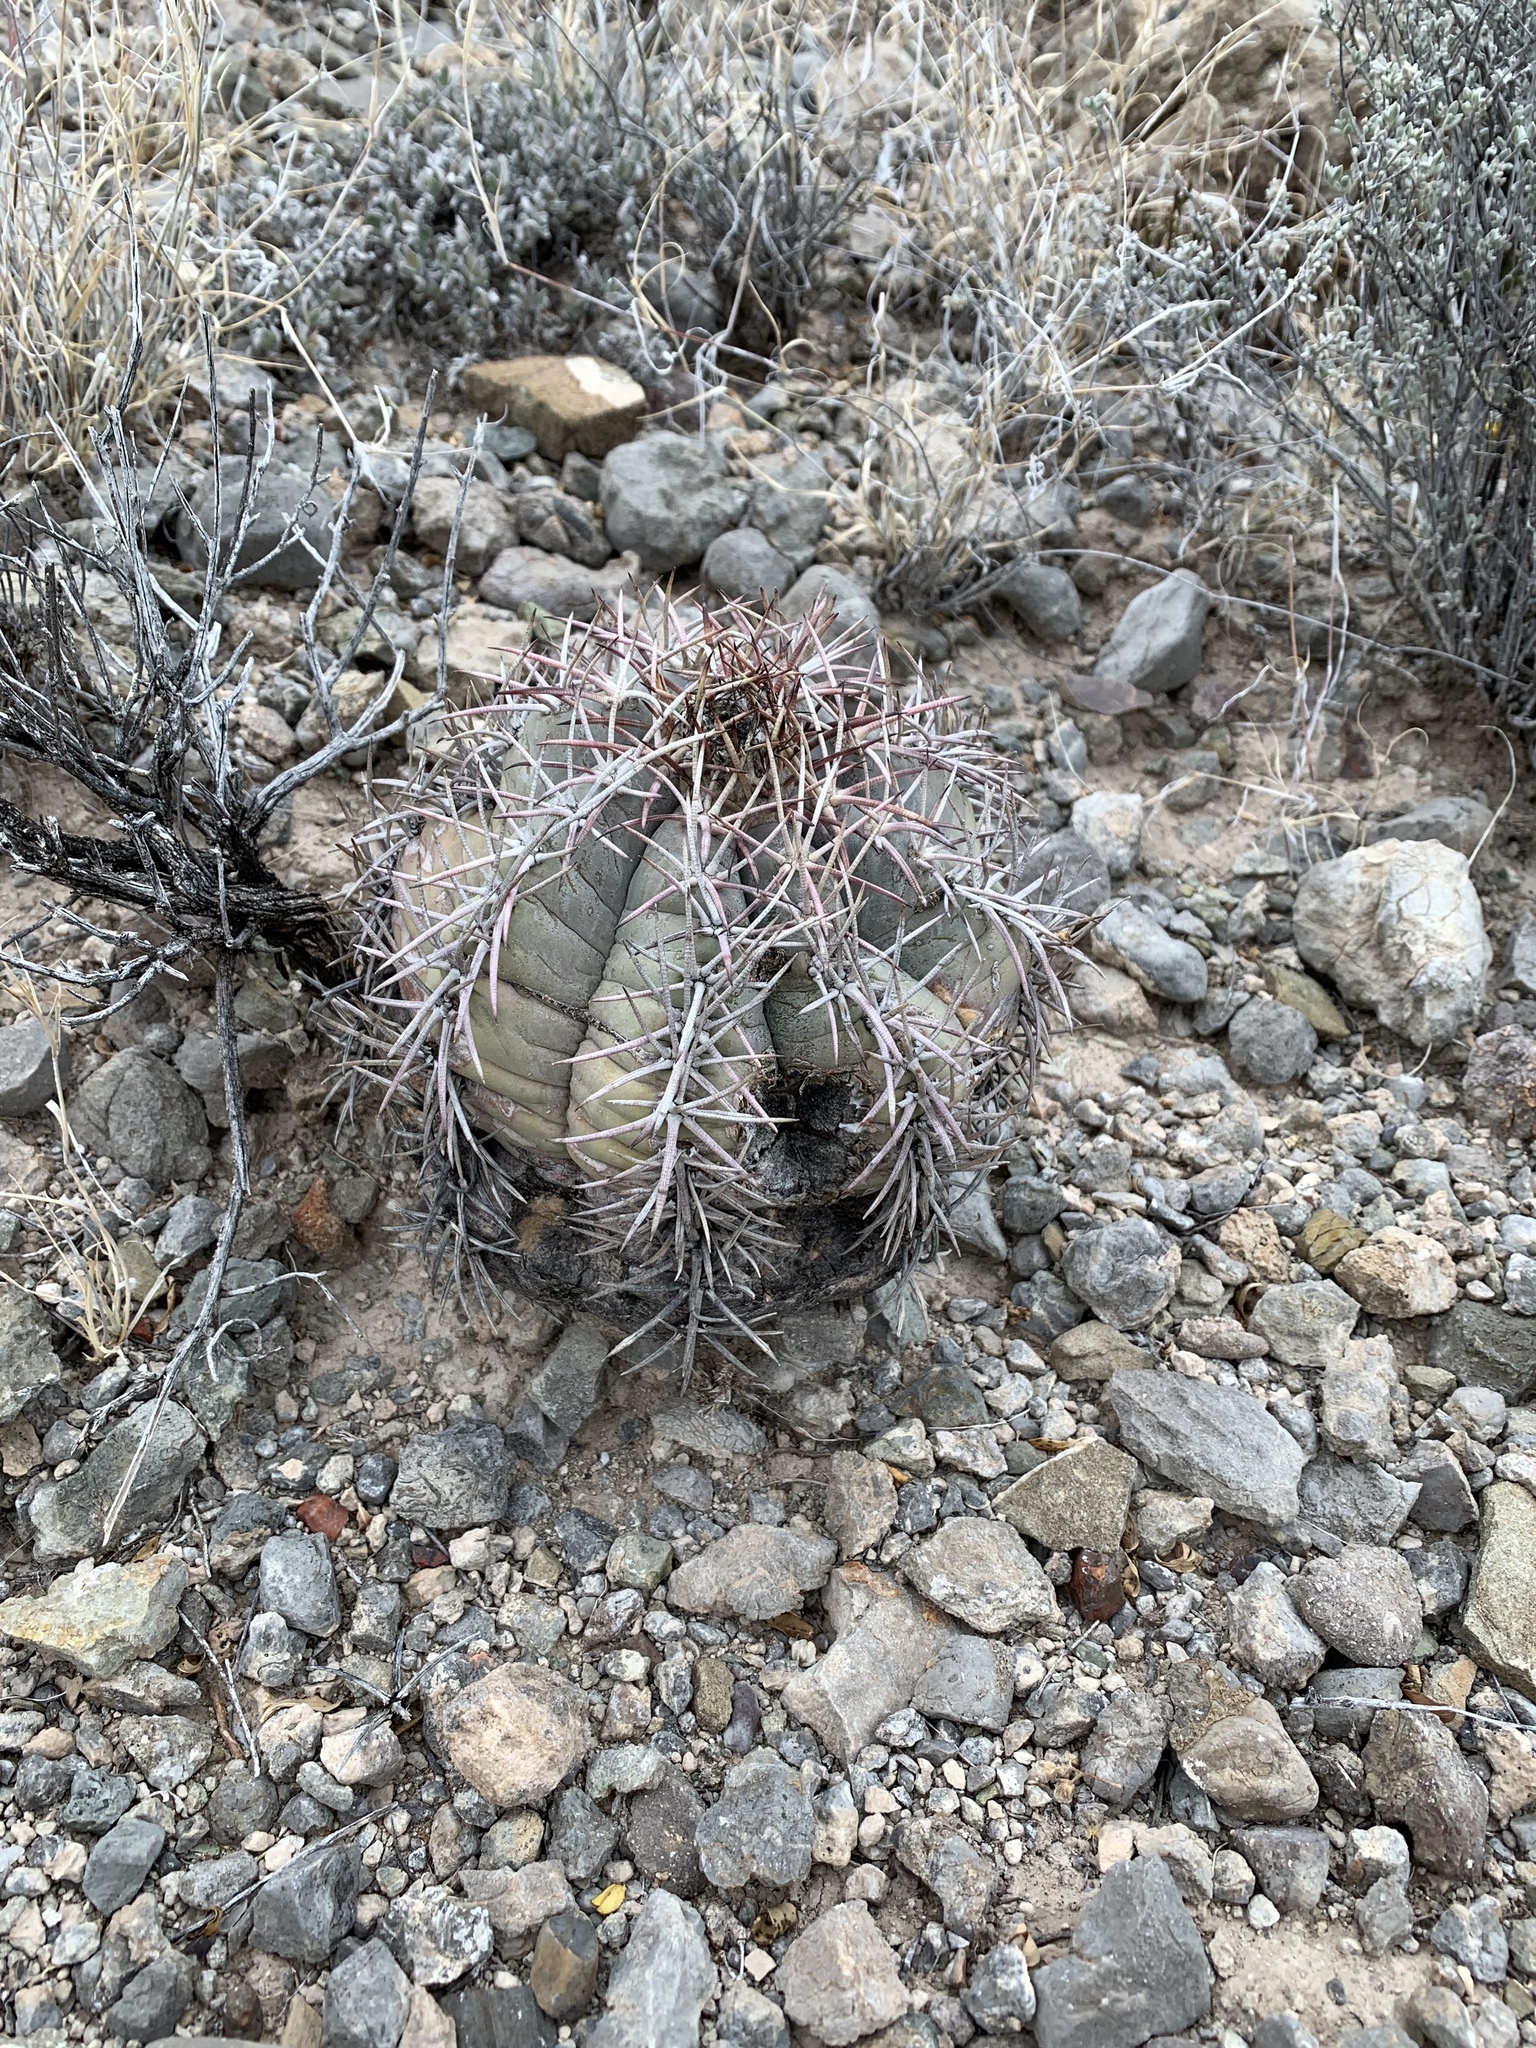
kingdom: Plantae
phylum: Tracheophyta
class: Magnoliopsida
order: Caryophyllales
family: Cactaceae
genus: Echinocactus
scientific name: Echinocactus horizonthalonius
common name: Devilshead
